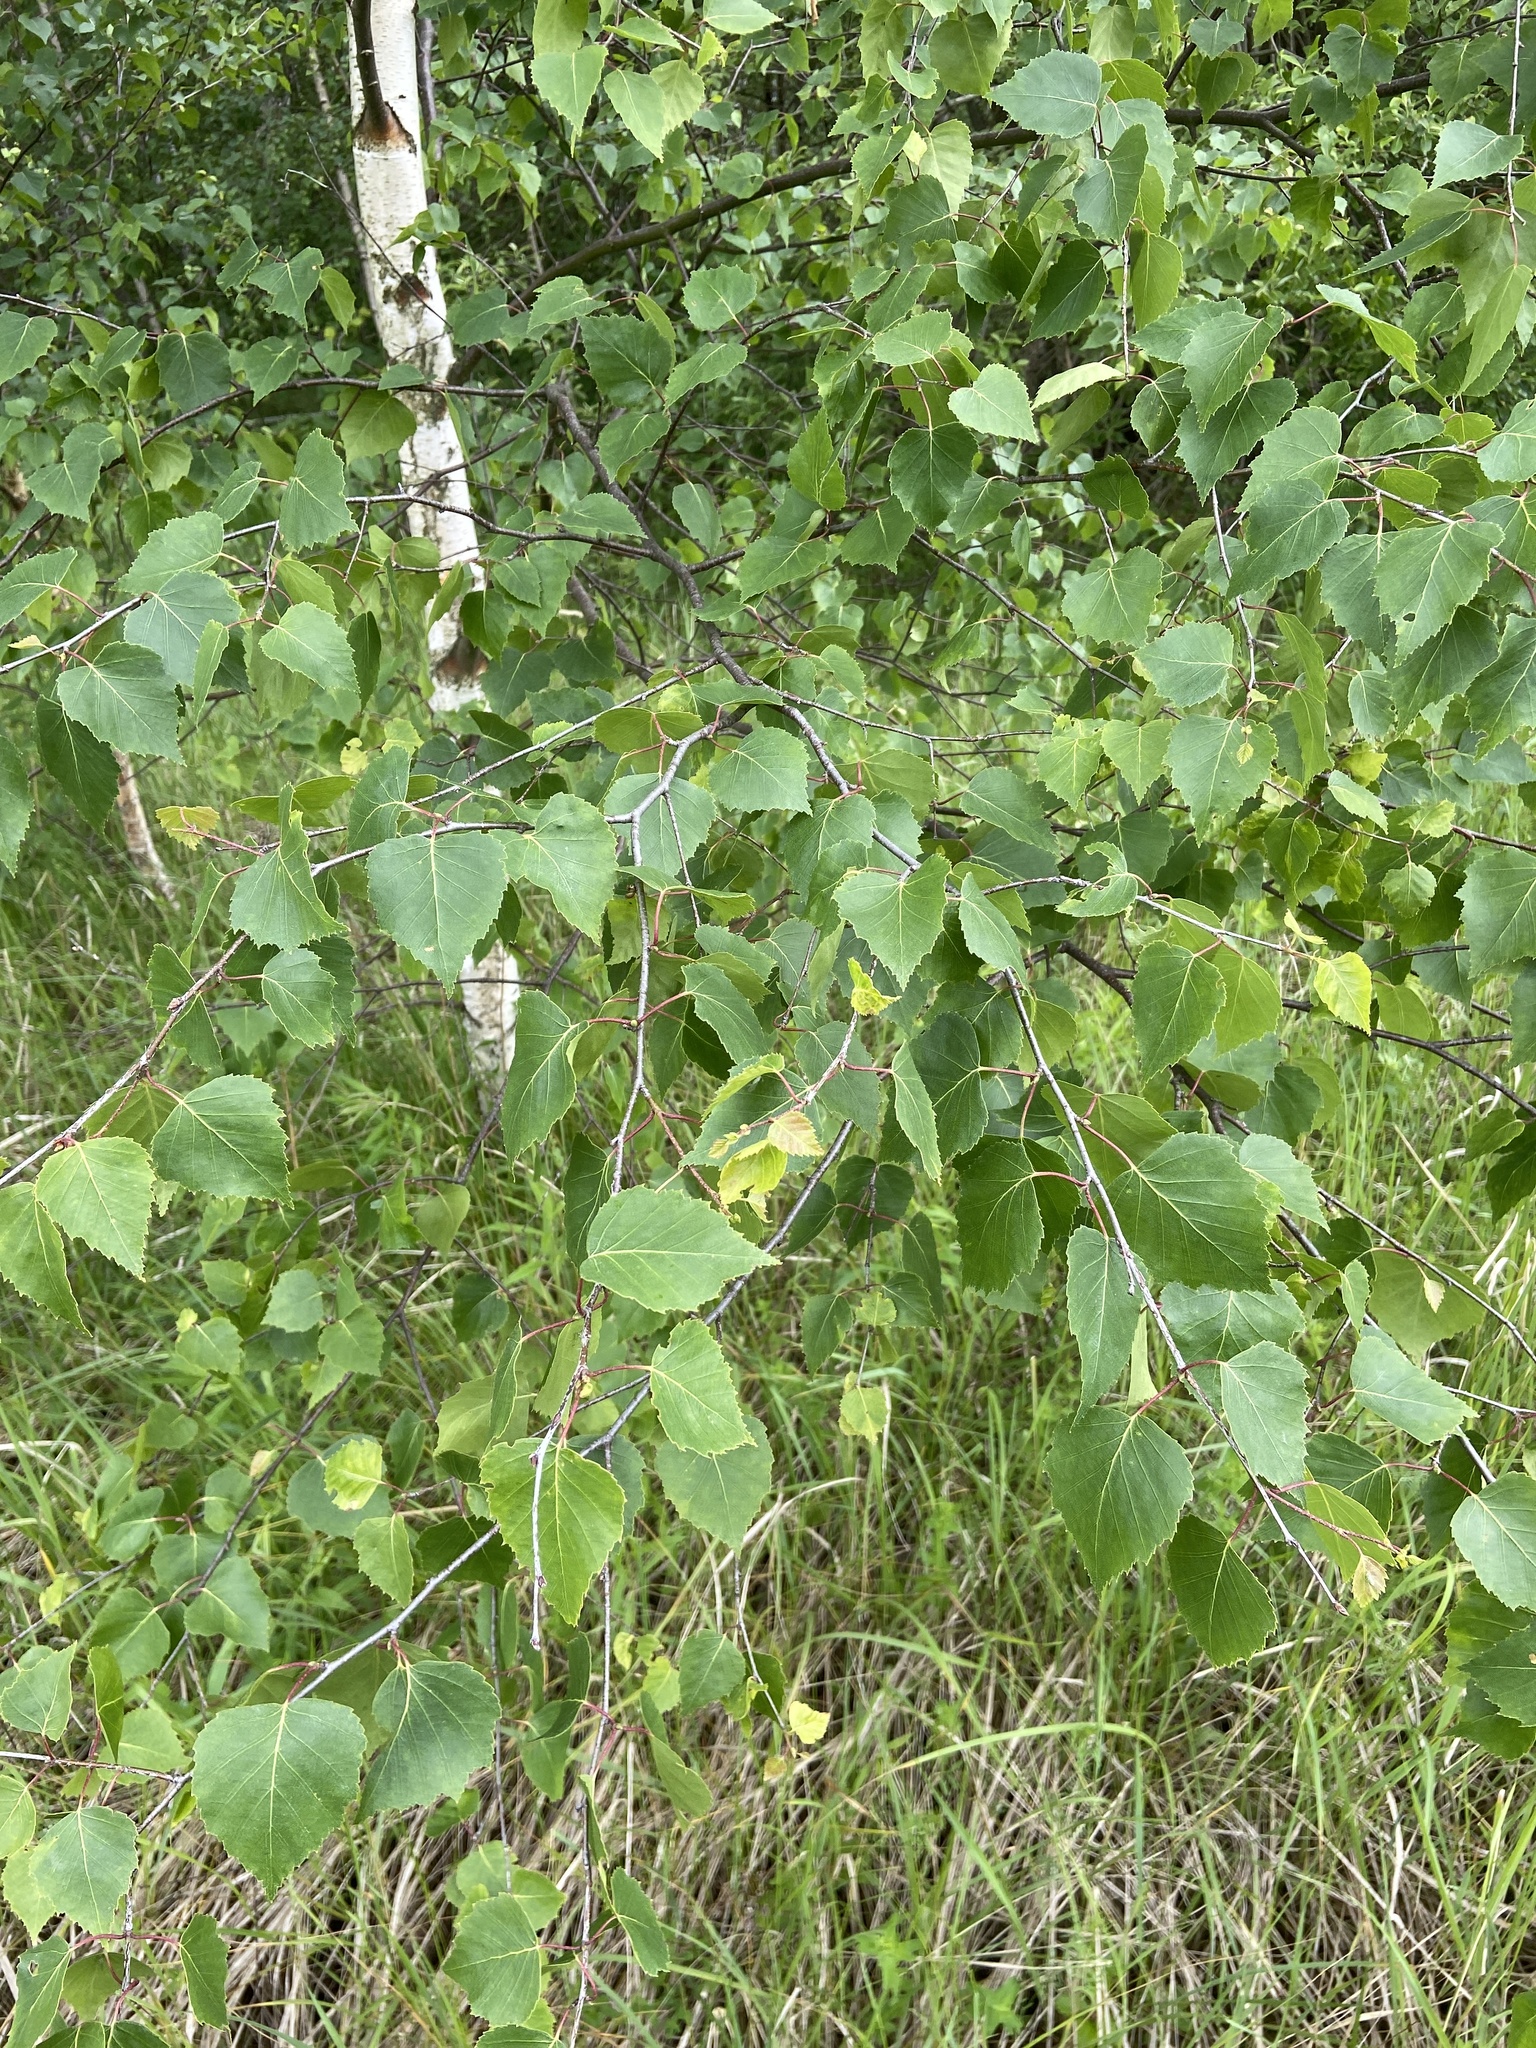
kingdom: Plantae
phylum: Tracheophyta
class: Magnoliopsida
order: Fagales
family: Betulaceae
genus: Betula
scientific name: Betula pendula
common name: Silver birch
